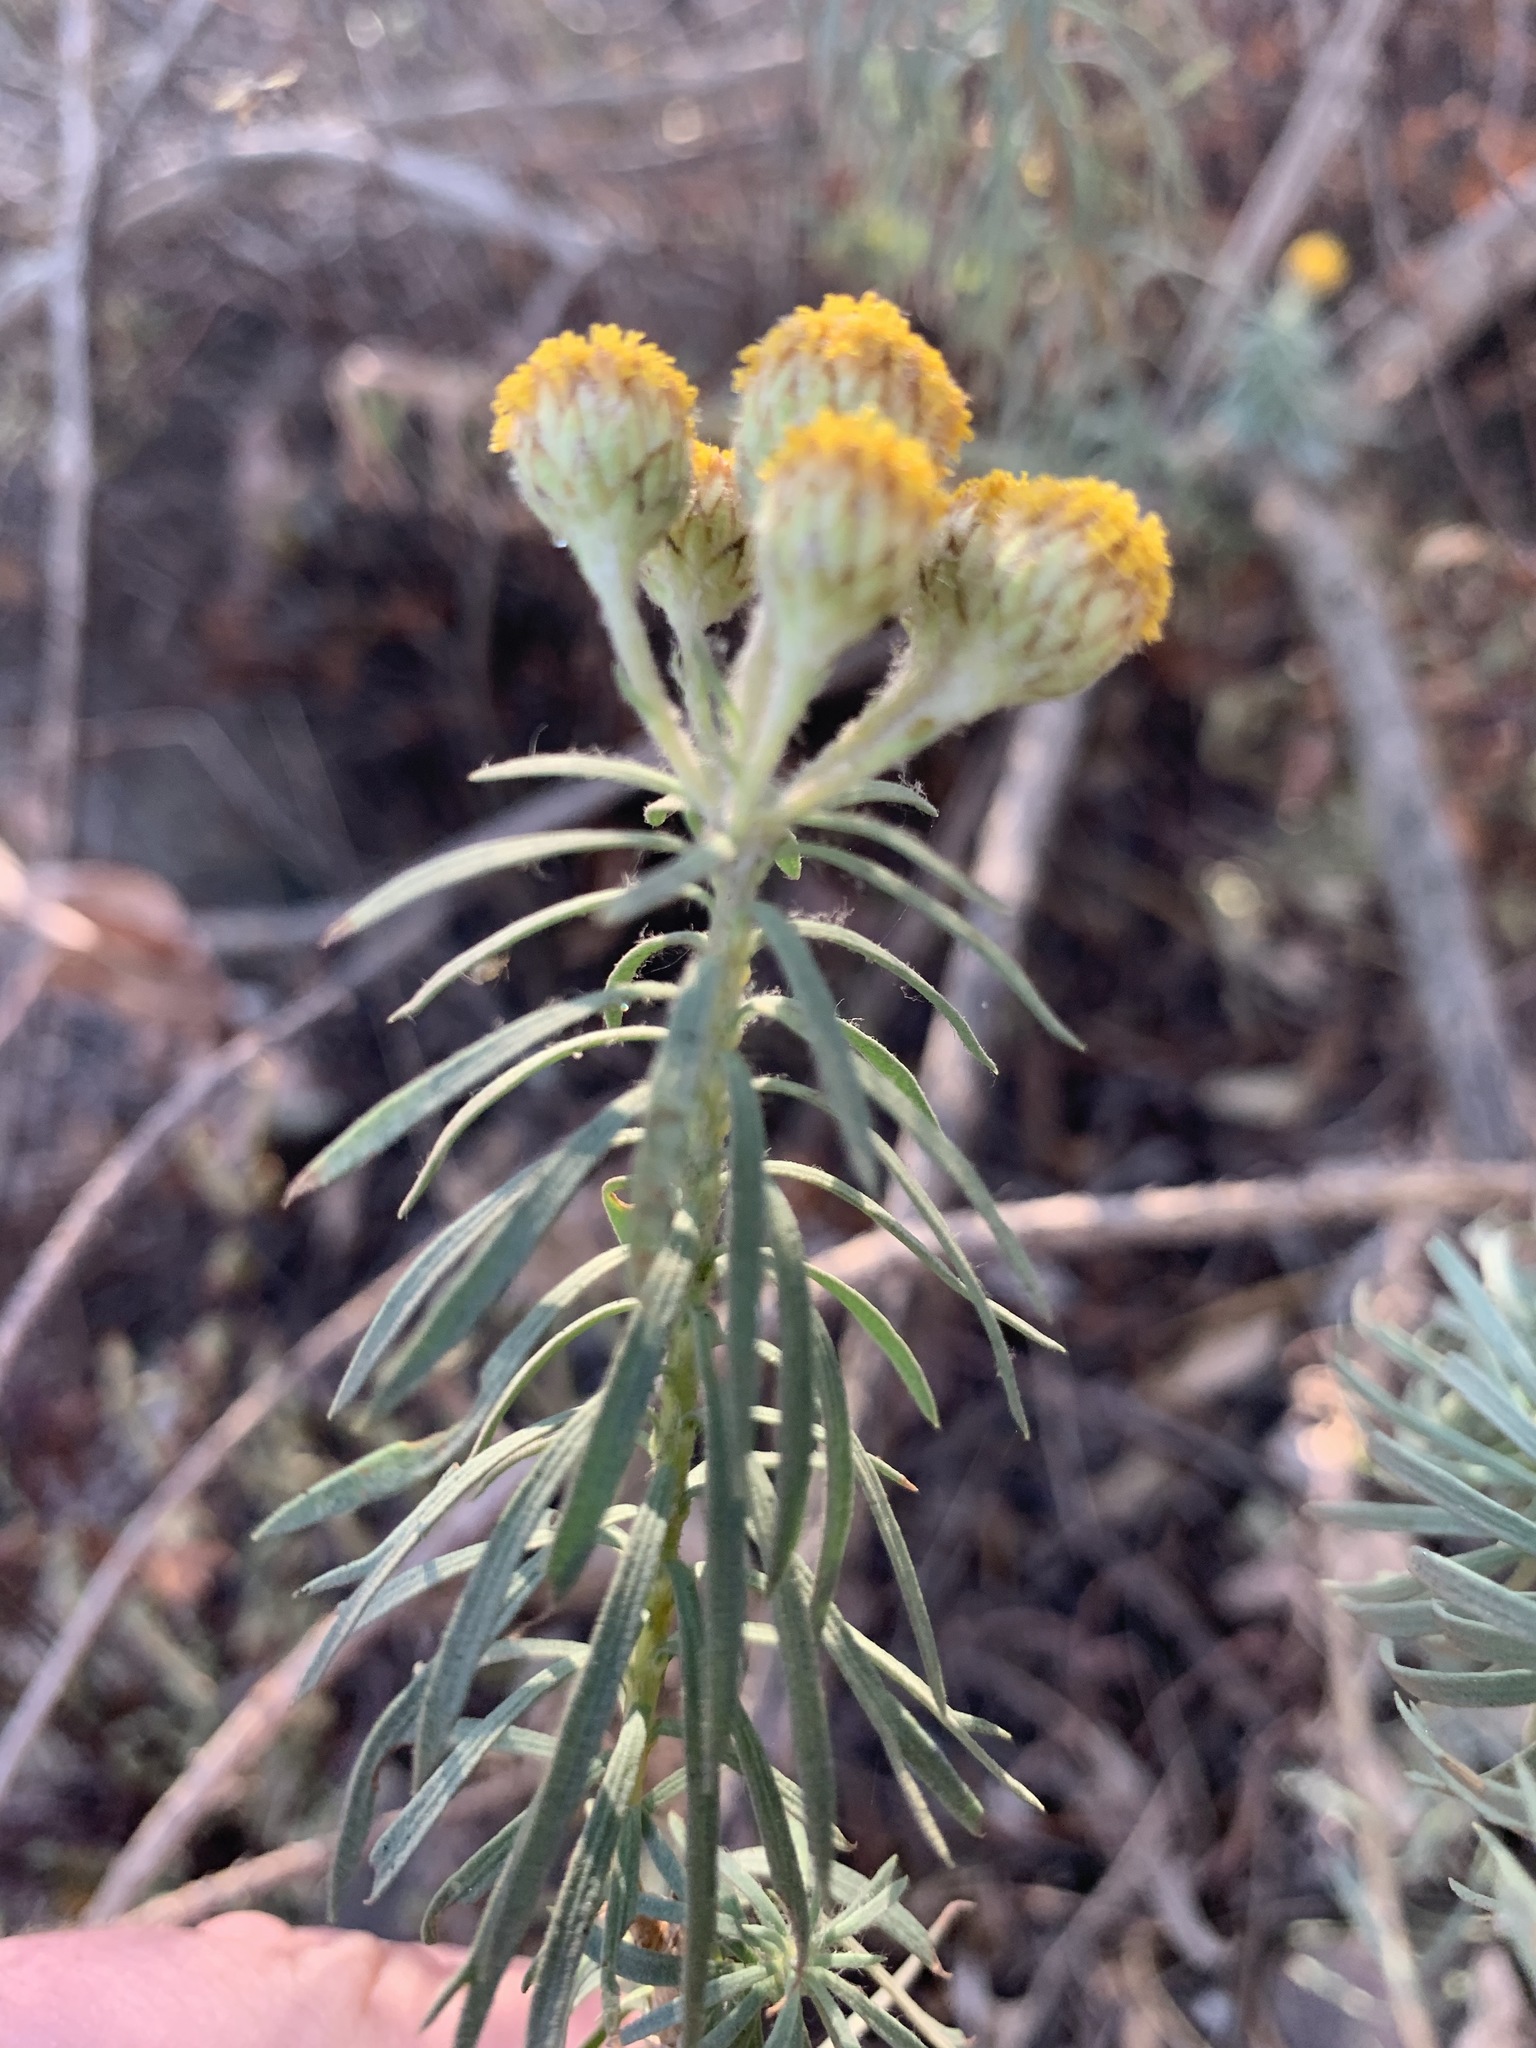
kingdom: Plantae
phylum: Tracheophyta
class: Magnoliopsida
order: Asterales
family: Asteraceae
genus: Phymaspermum
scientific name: Phymaspermum athanasioides
